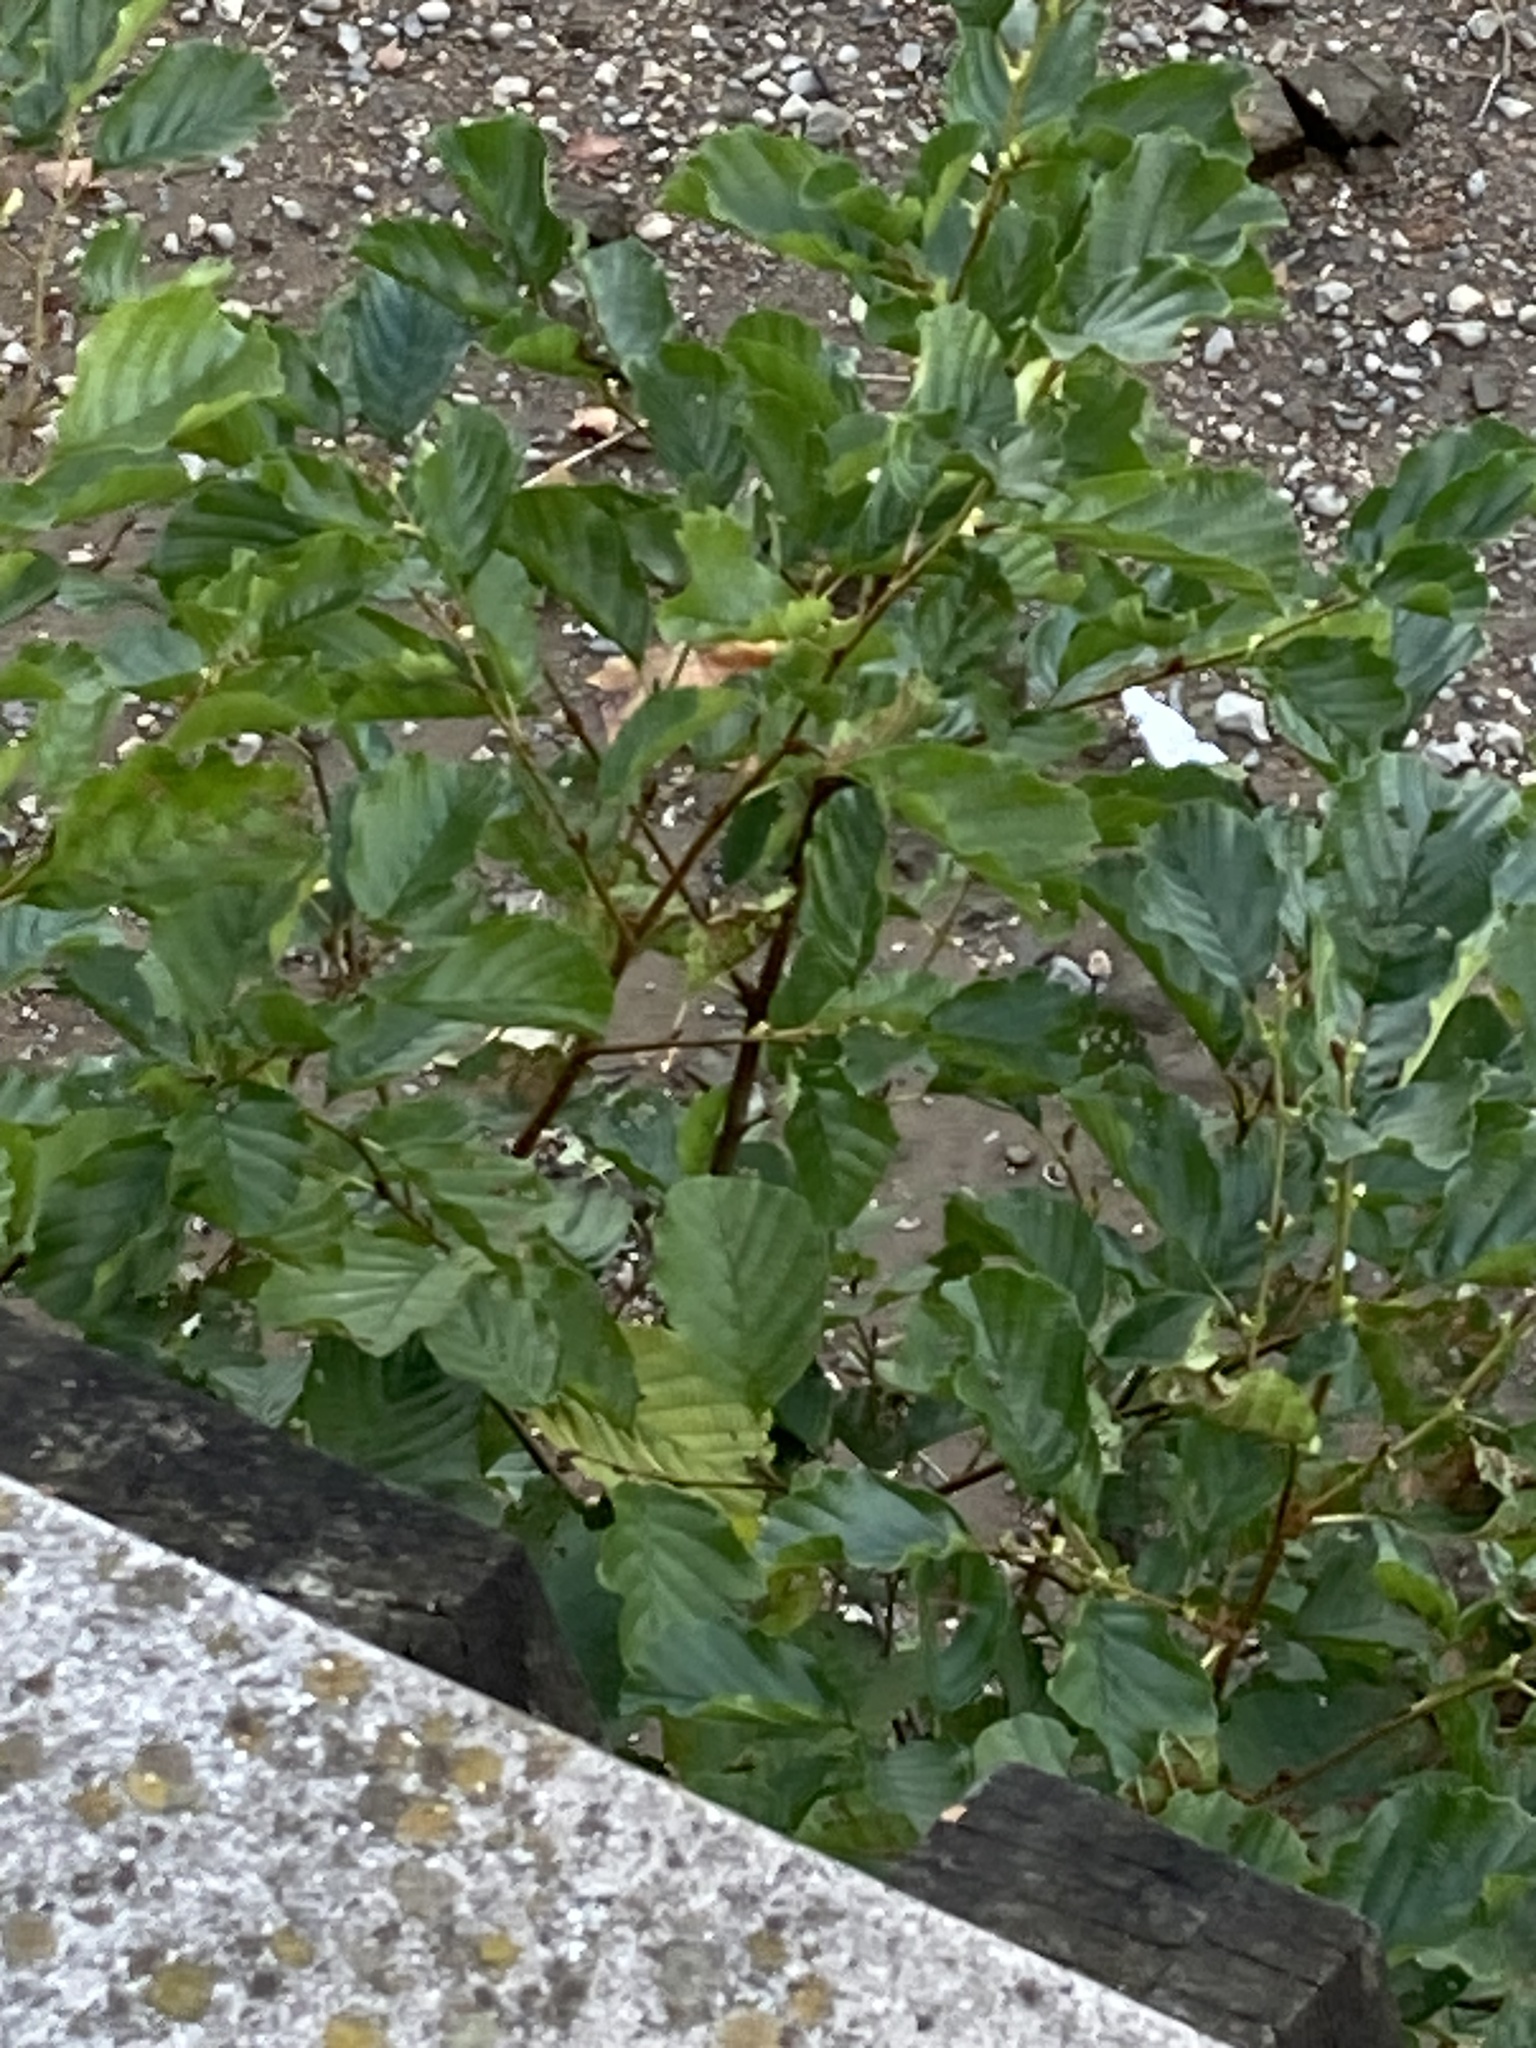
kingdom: Plantae
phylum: Tracheophyta
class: Magnoliopsida
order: Fagales
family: Betulaceae
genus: Alnus
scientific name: Alnus glutinosa
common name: Black alder
